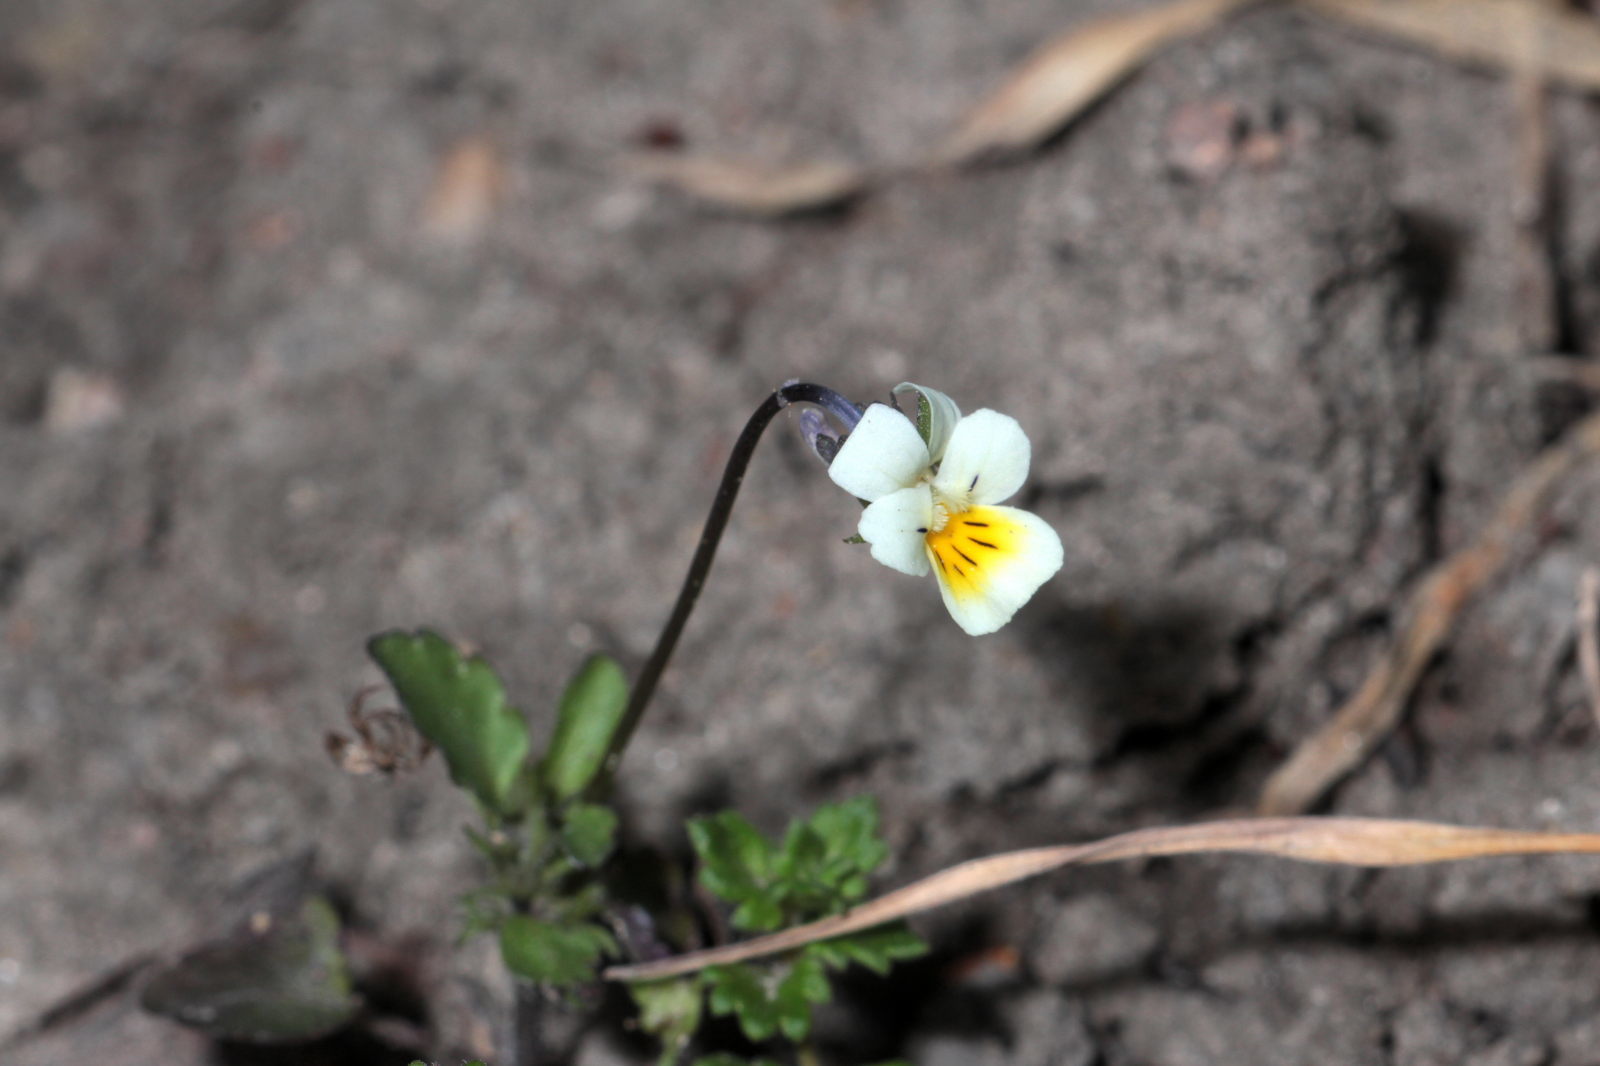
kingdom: Plantae
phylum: Tracheophyta
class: Magnoliopsida
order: Malpighiales
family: Violaceae
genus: Viola
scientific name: Viola arvensis
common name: Field pansy
